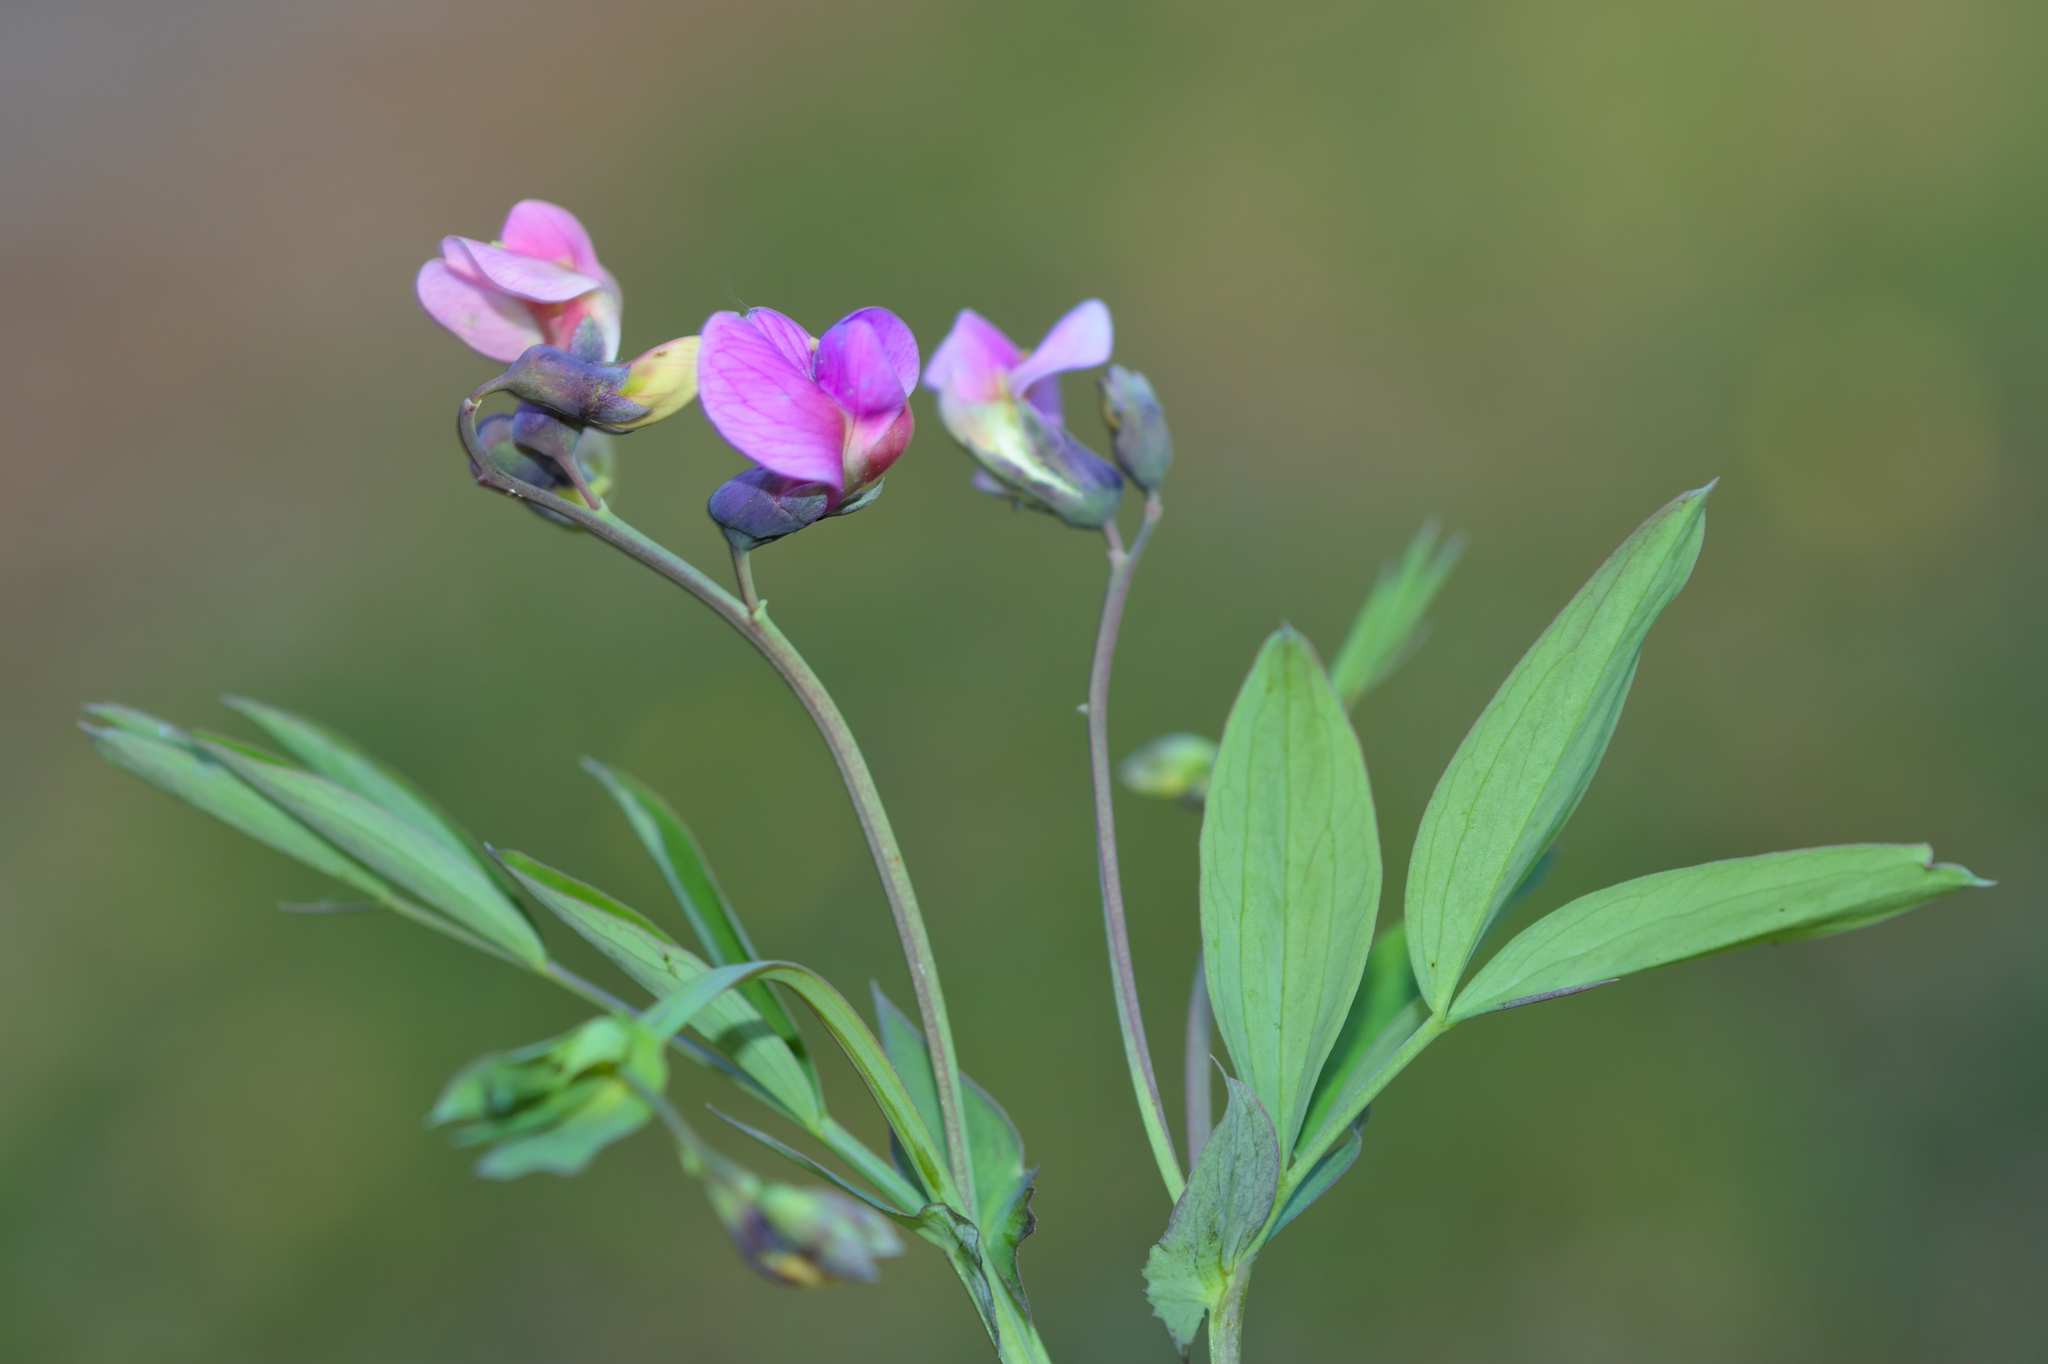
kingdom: Plantae
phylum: Tracheophyta
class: Magnoliopsida
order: Fabales
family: Fabaceae
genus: Lathyrus
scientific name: Lathyrus linifolius
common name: Bitter-vetch
